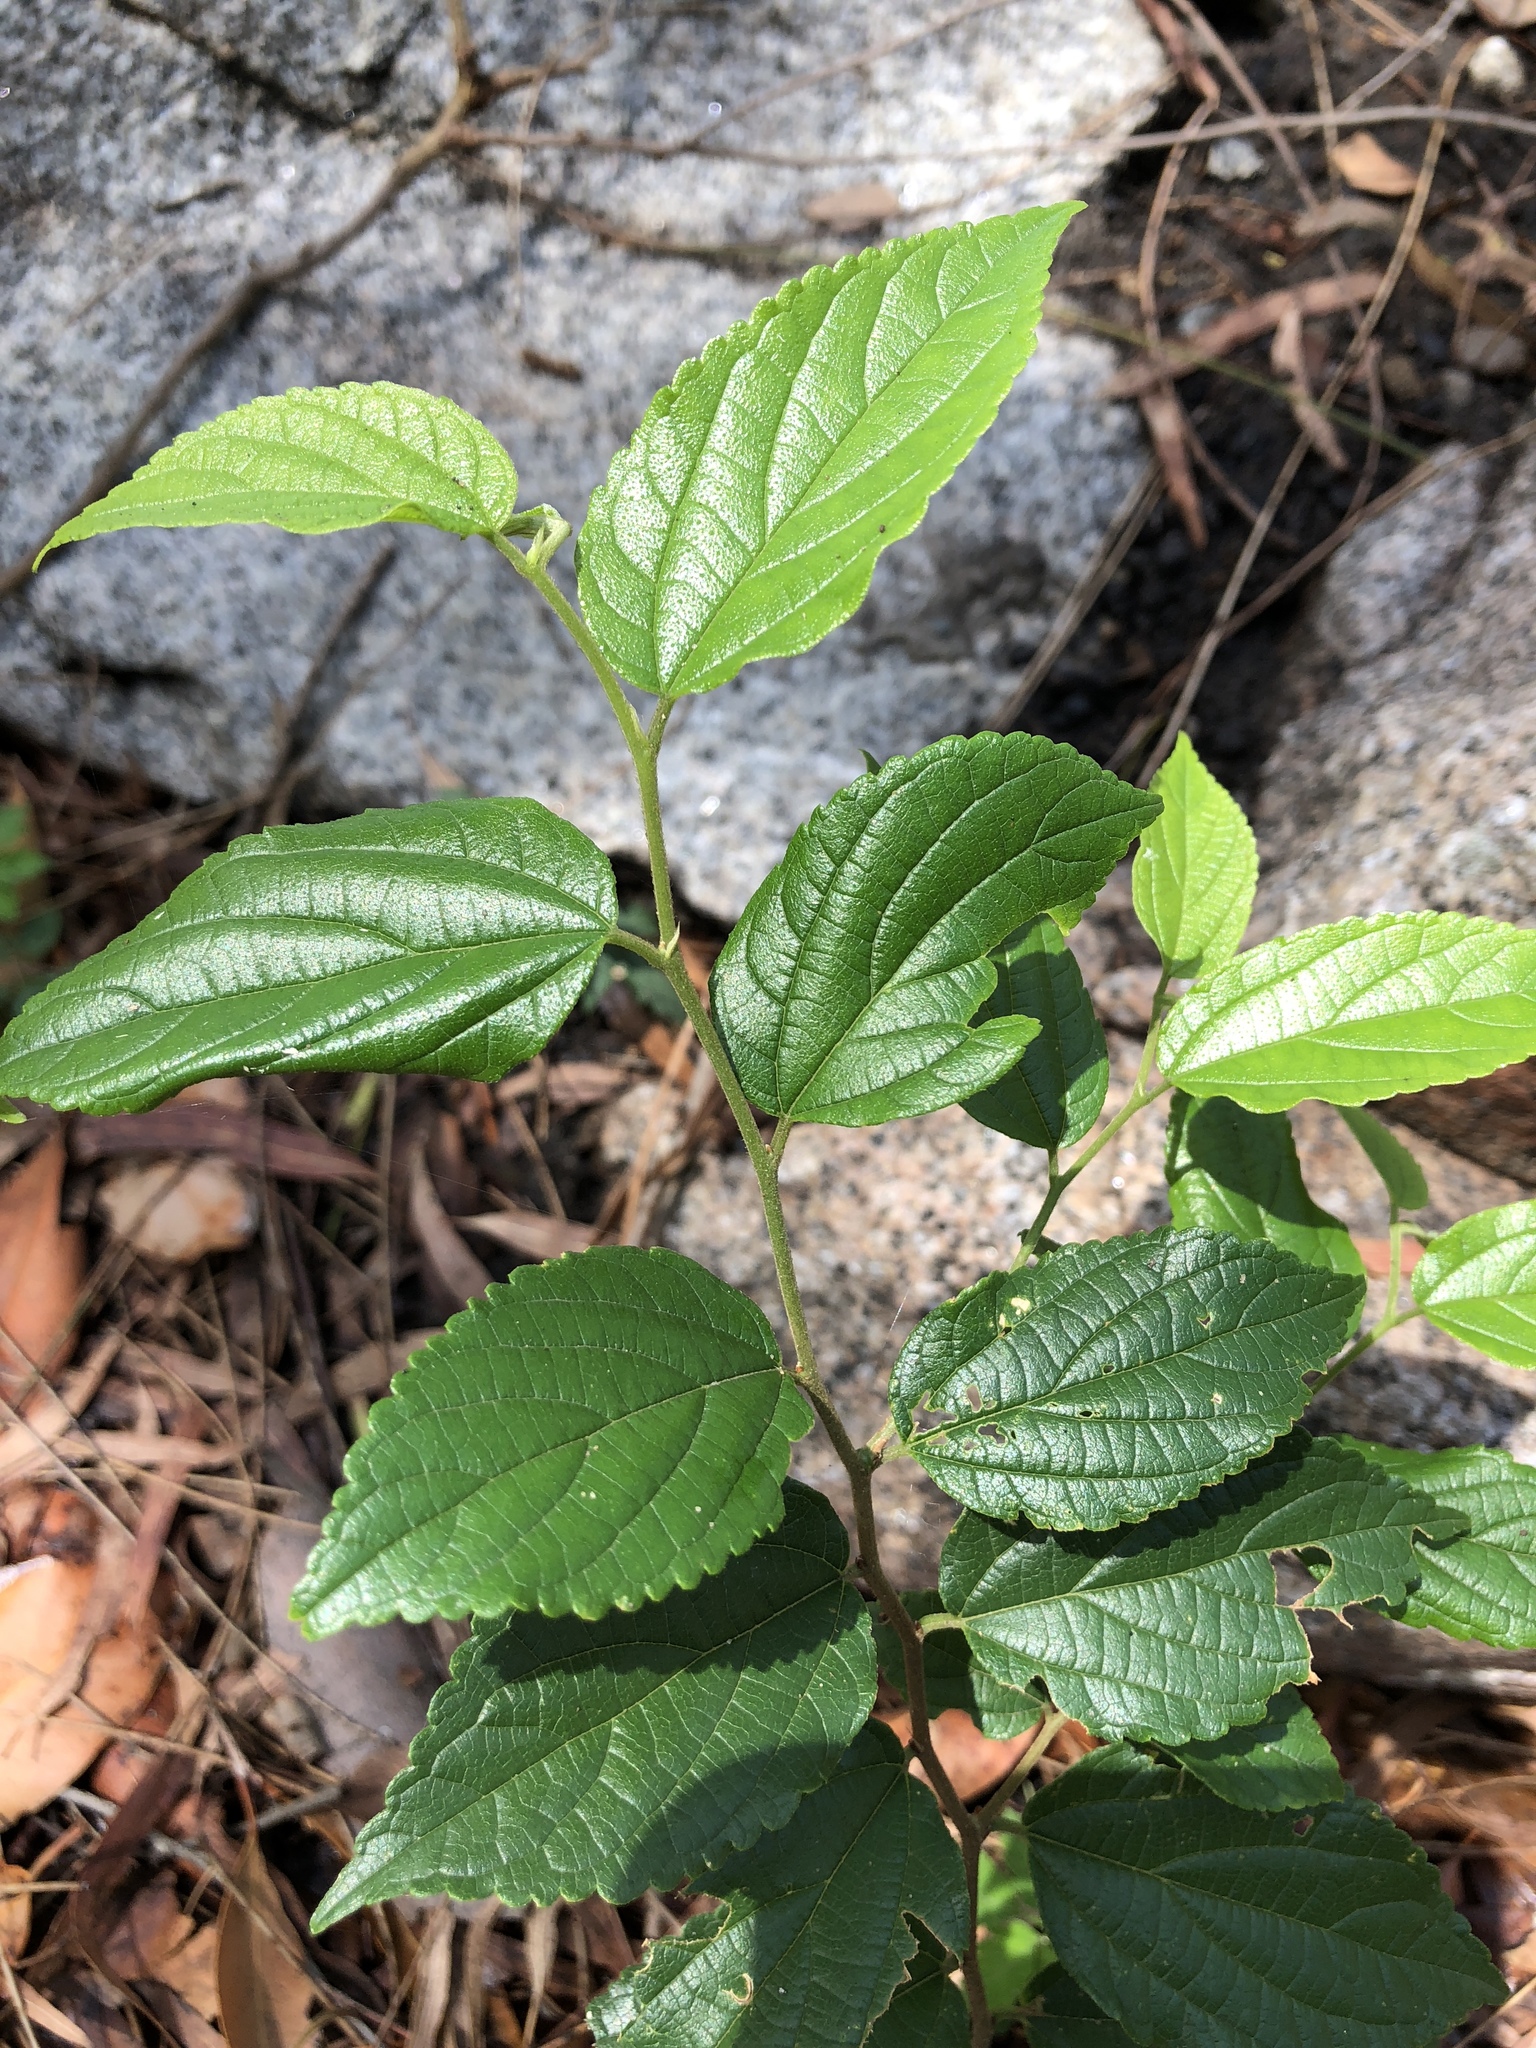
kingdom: Plantae
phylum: Tracheophyta
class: Magnoliopsida
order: Rosales
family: Cannabaceae
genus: Celtis
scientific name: Celtis sinensis
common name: Chinese hackberry
